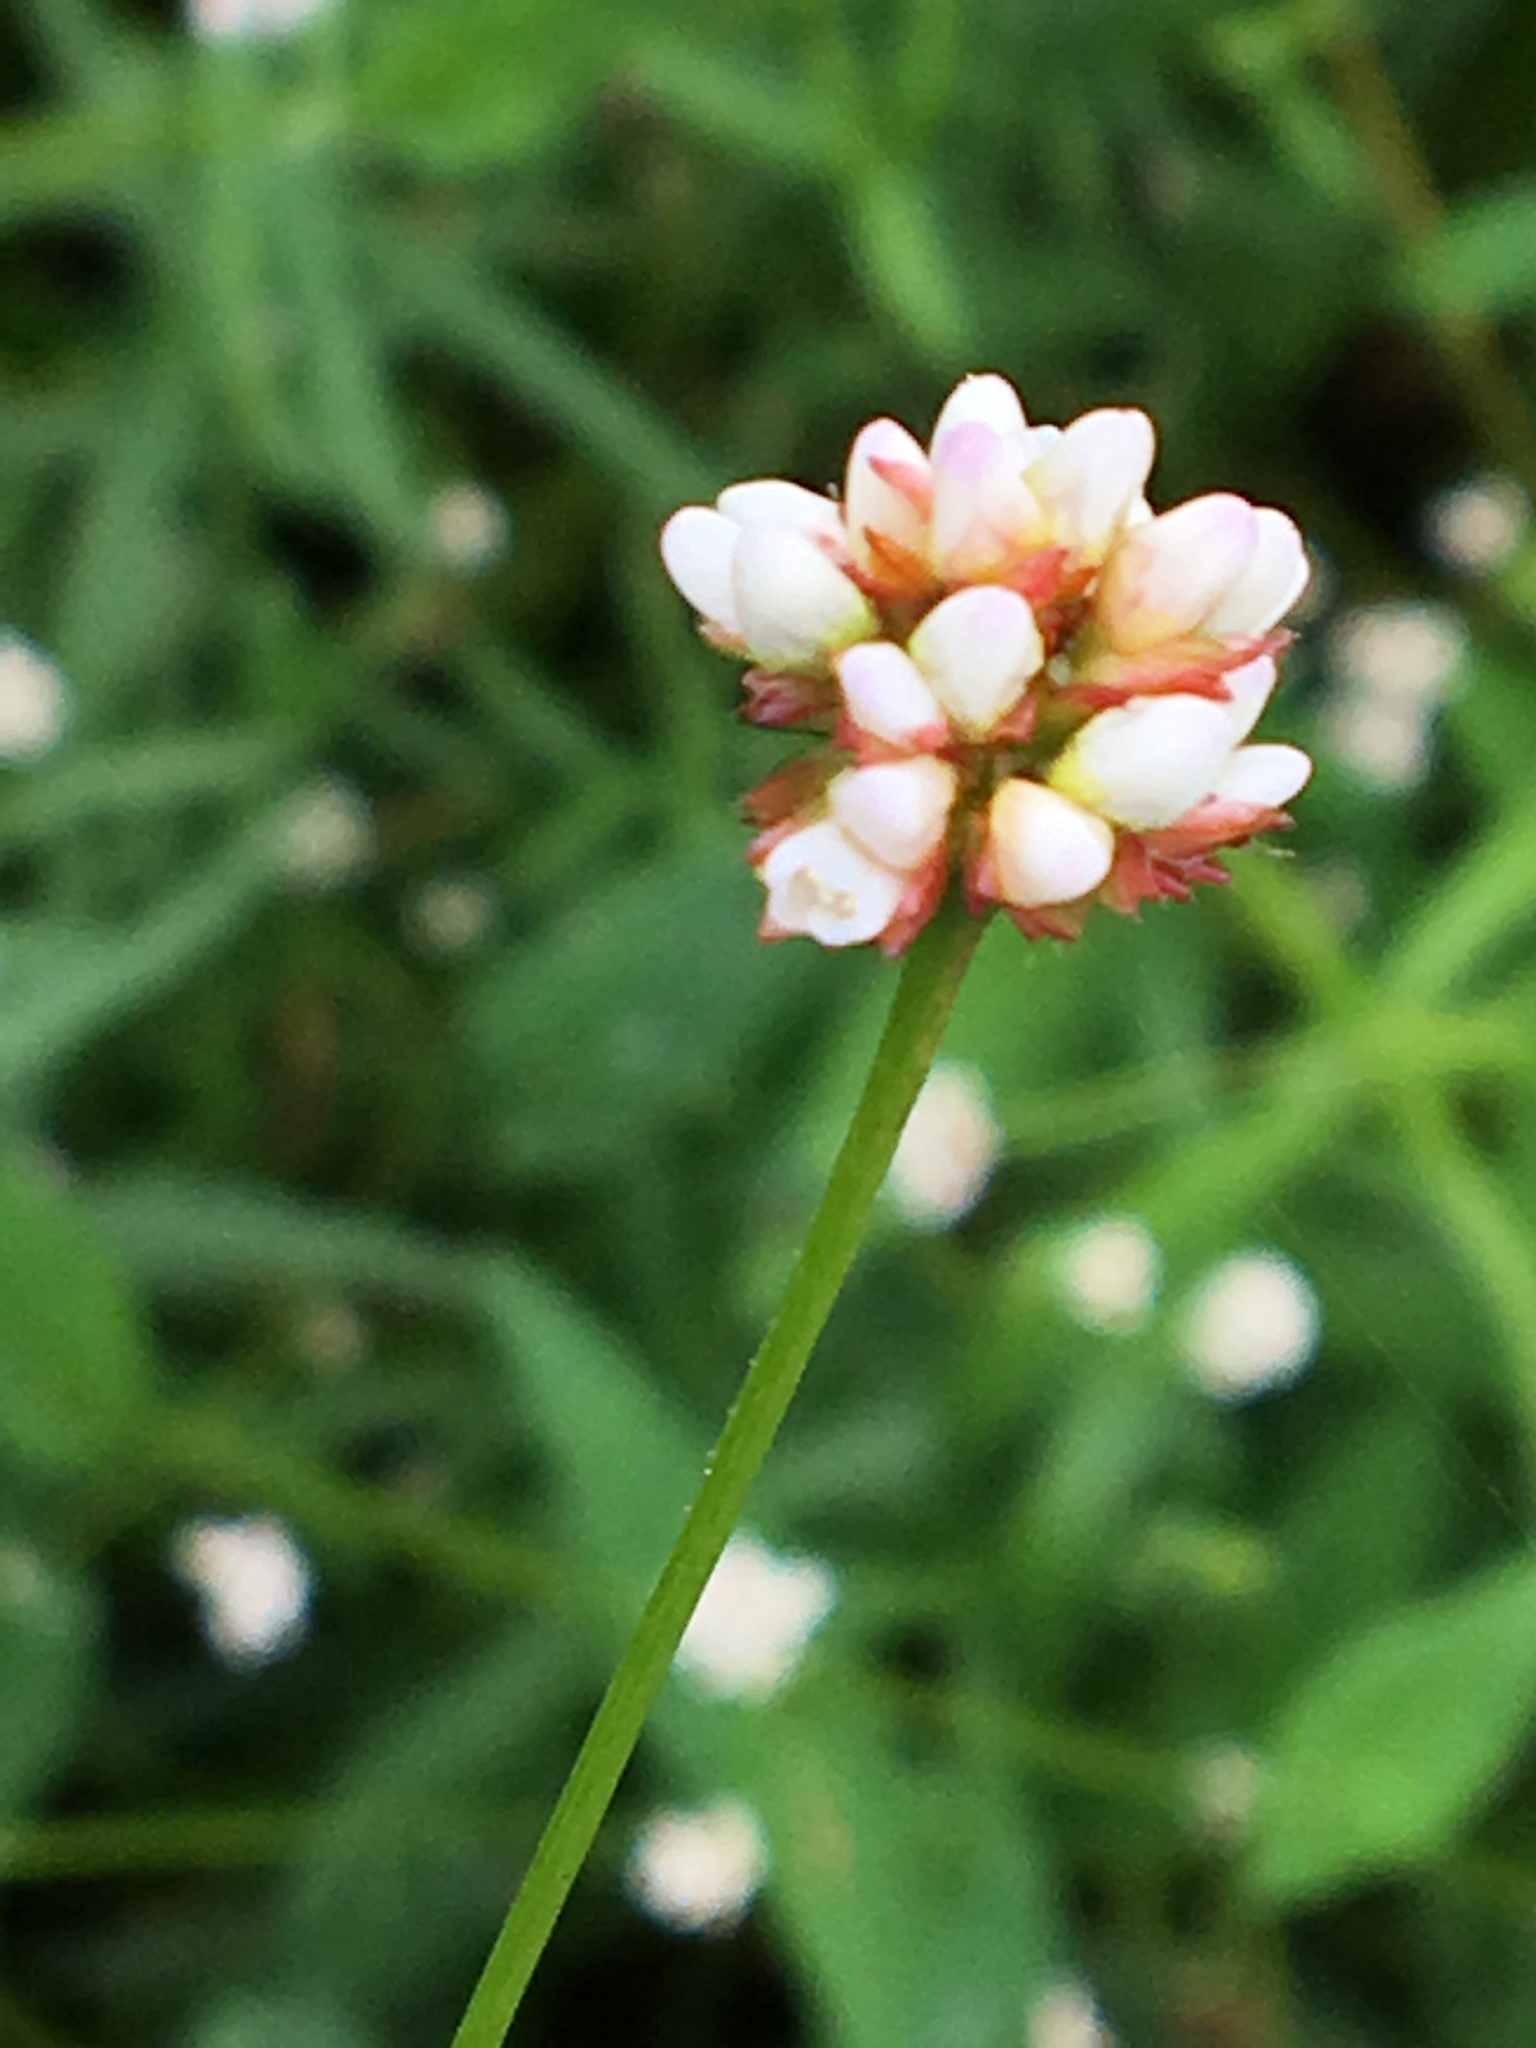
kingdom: Plantae
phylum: Tracheophyta
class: Magnoliopsida
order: Caryophyllales
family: Polygonaceae
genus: Persicaria
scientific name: Persicaria sagittata
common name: American tearthumb
